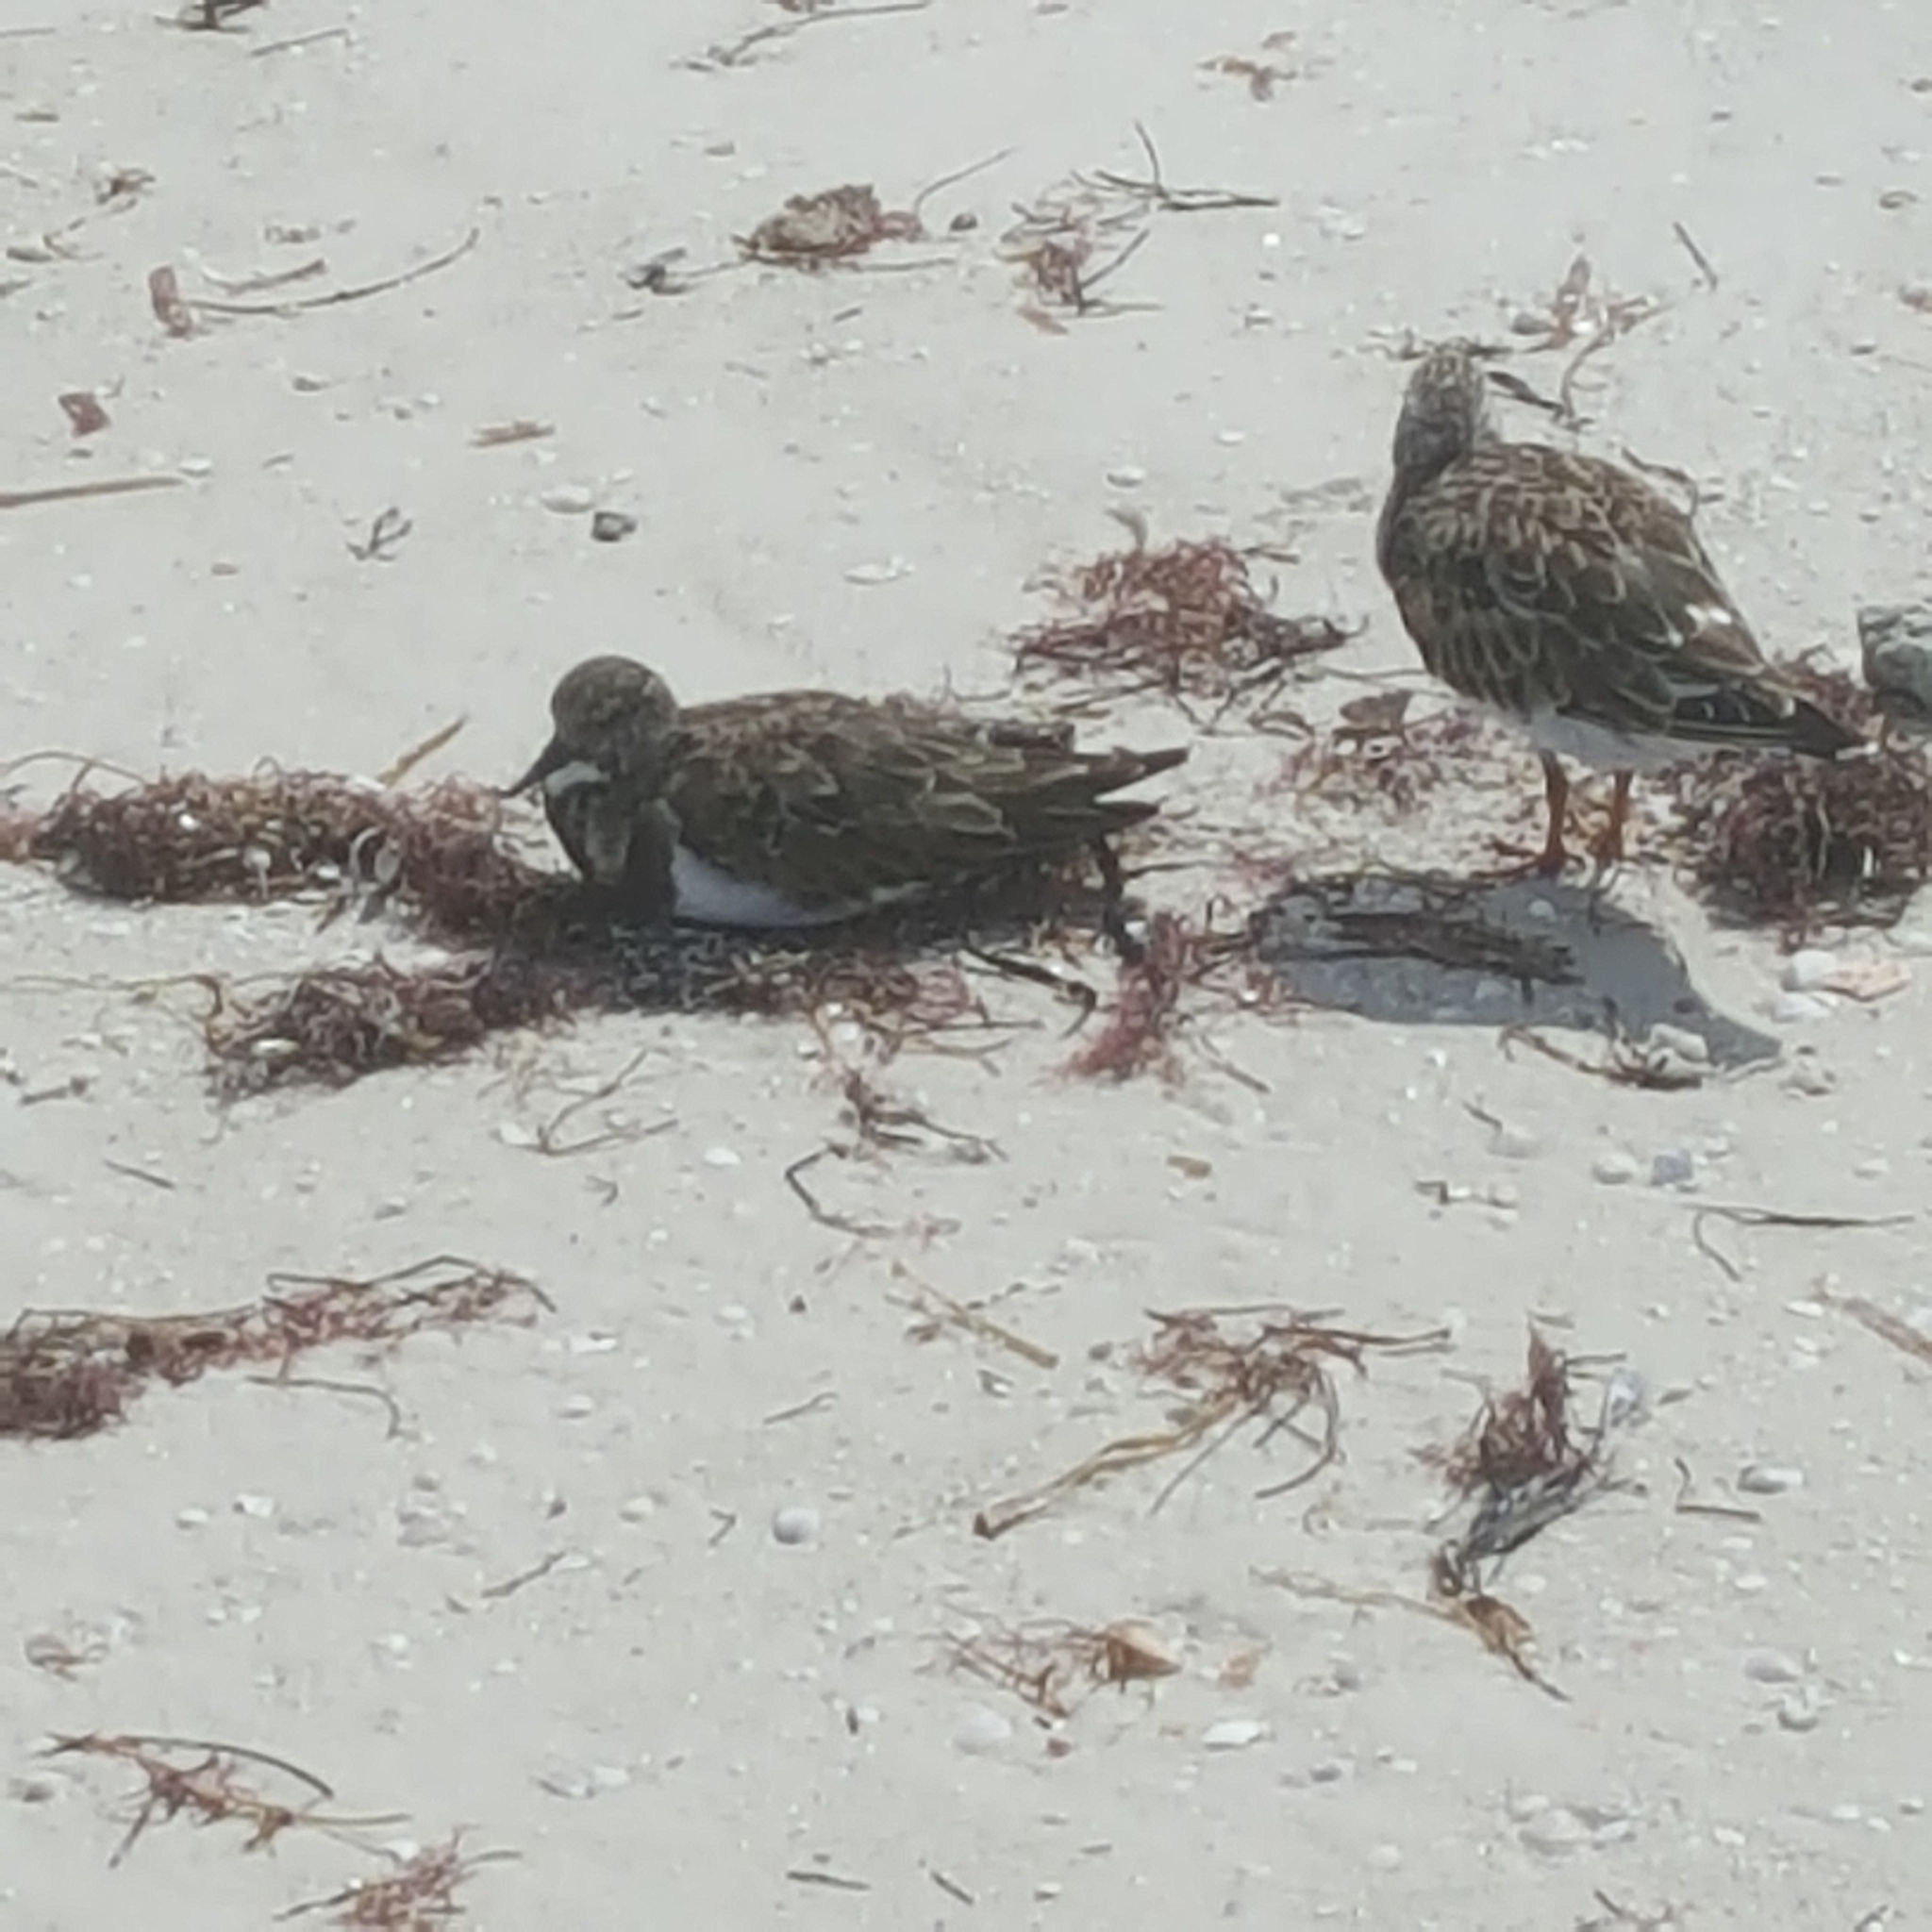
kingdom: Animalia
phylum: Chordata
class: Aves
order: Charadriiformes
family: Scolopacidae
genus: Arenaria
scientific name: Arenaria interpres
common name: Ruddy turnstone
